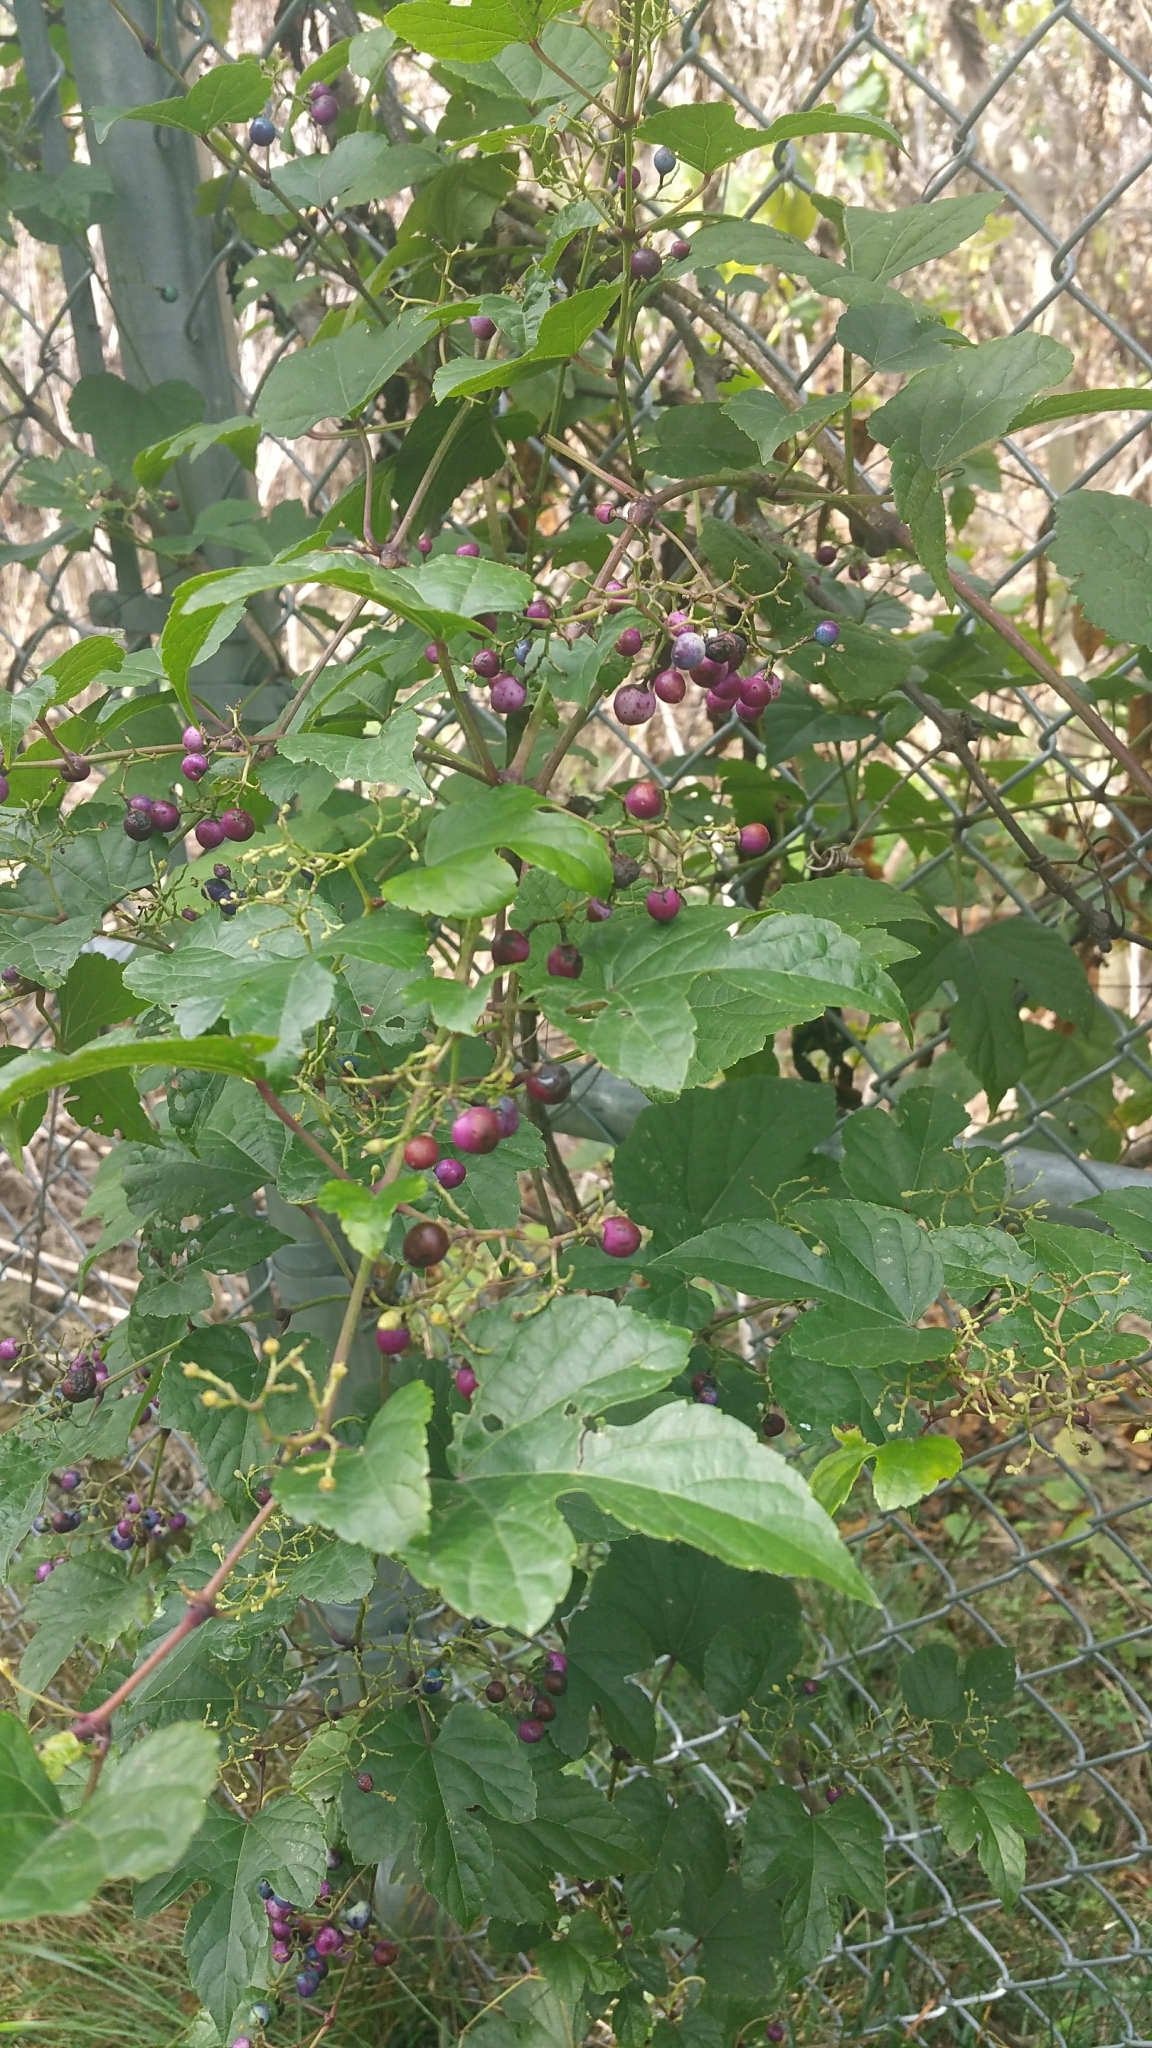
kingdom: Plantae
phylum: Tracheophyta
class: Magnoliopsida
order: Vitales
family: Vitaceae
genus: Ampelopsis
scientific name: Ampelopsis glandulosa
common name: Amur peppervine
